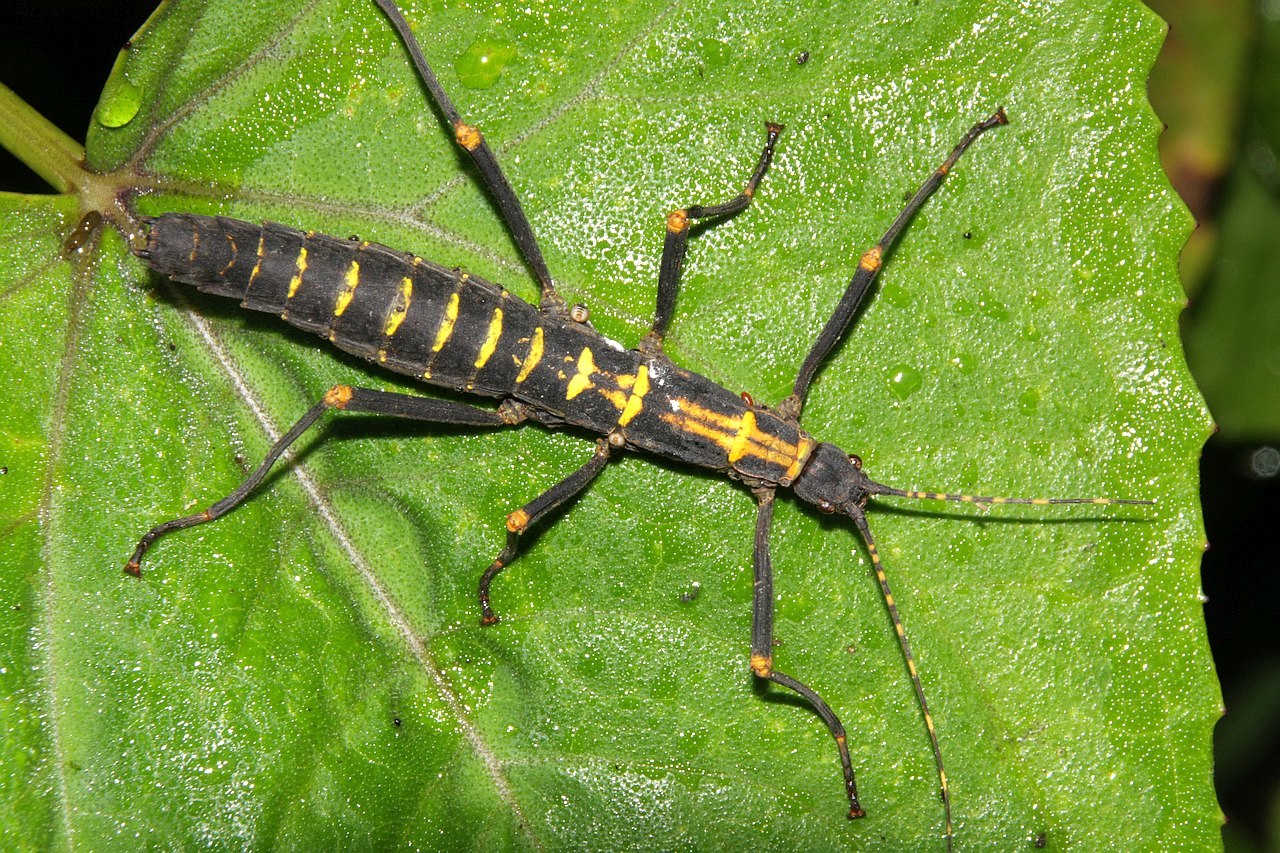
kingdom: Animalia
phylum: Arthropoda
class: Insecta
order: Phasmida
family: Pseudophasmatidae
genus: Peruphasma
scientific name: Peruphasma transversatum
